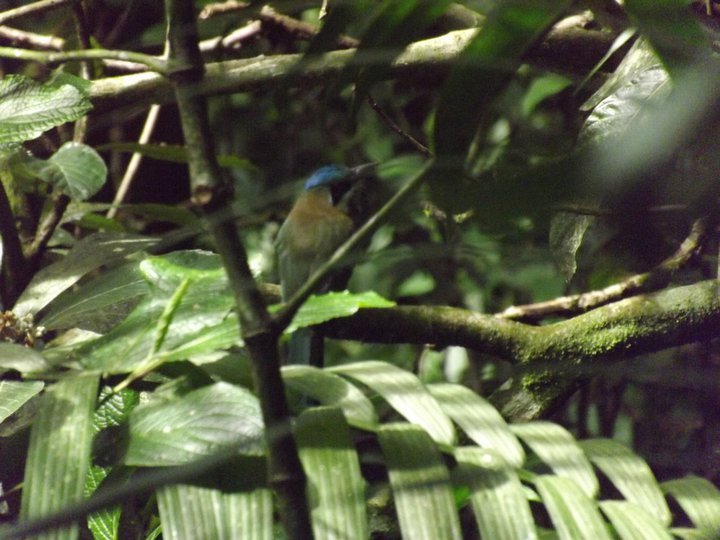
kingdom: Animalia
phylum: Chordata
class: Aves
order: Coraciiformes
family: Momotidae
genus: Momotus
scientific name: Momotus lessonii
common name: Lesson's motmot
